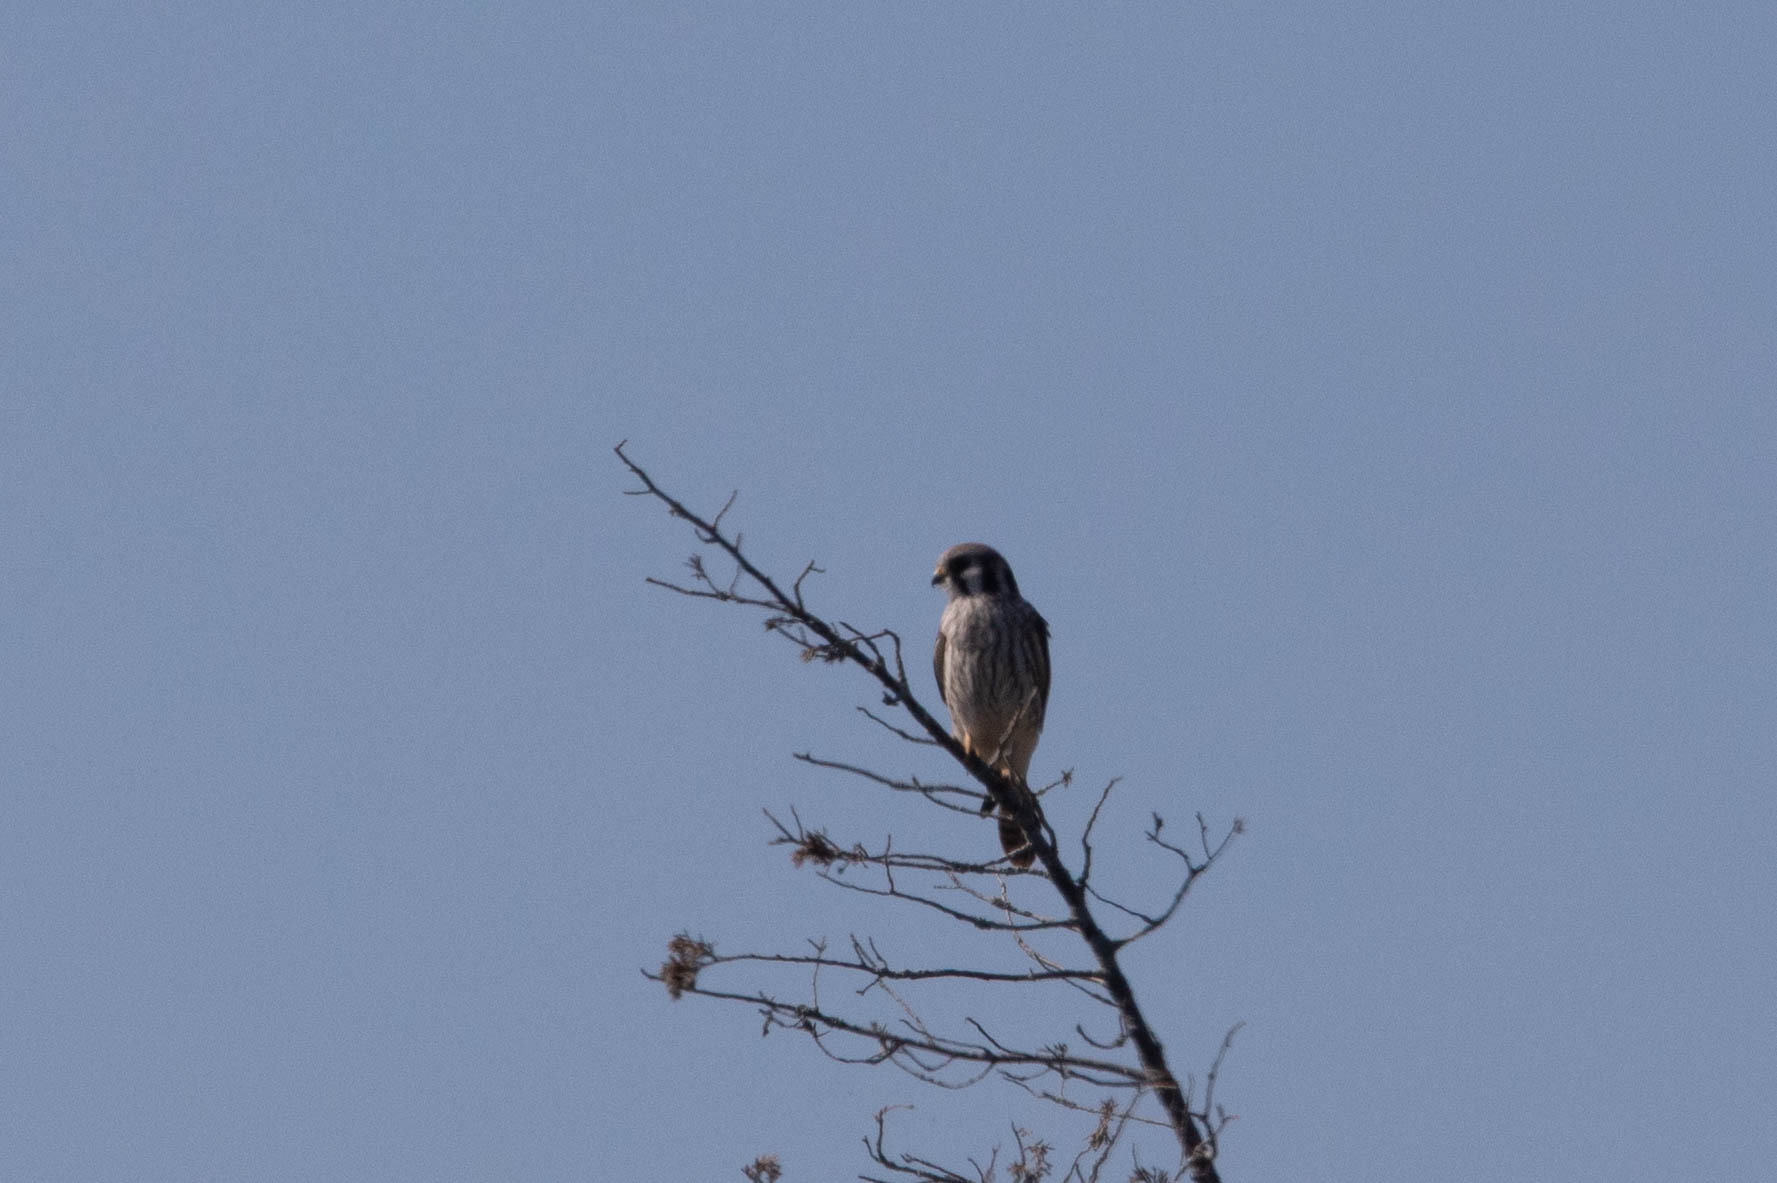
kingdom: Animalia
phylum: Chordata
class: Aves
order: Falconiformes
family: Falconidae
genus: Falco
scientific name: Falco sparverius
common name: American kestrel
